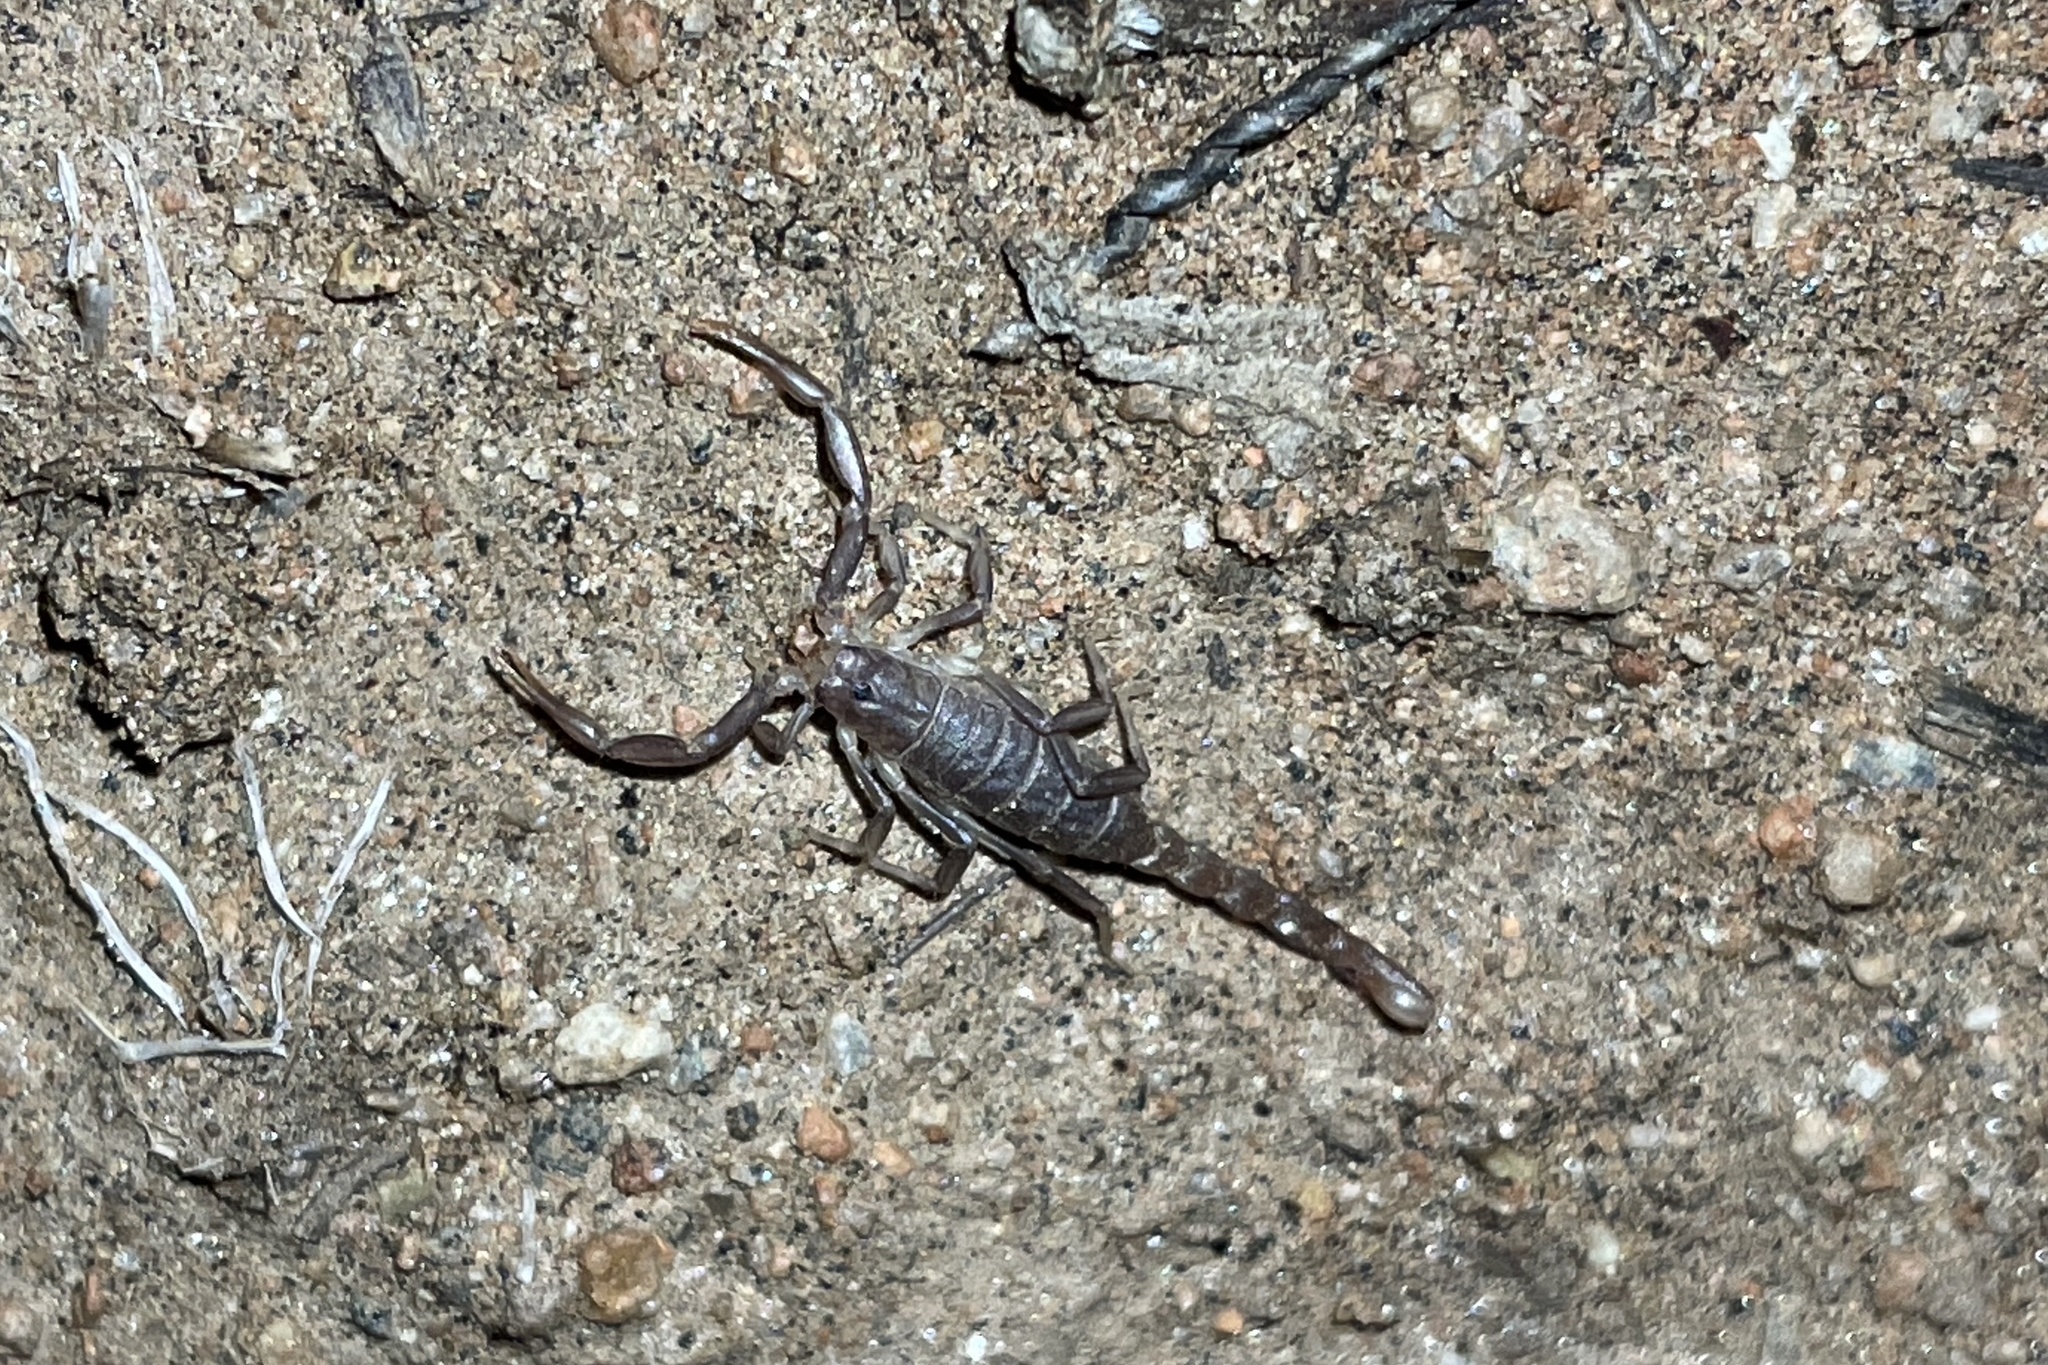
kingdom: Animalia
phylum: Arthropoda
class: Arachnida
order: Scorpiones
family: Vaejovidae
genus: Paravaejovis
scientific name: Paravaejovis puritanus
